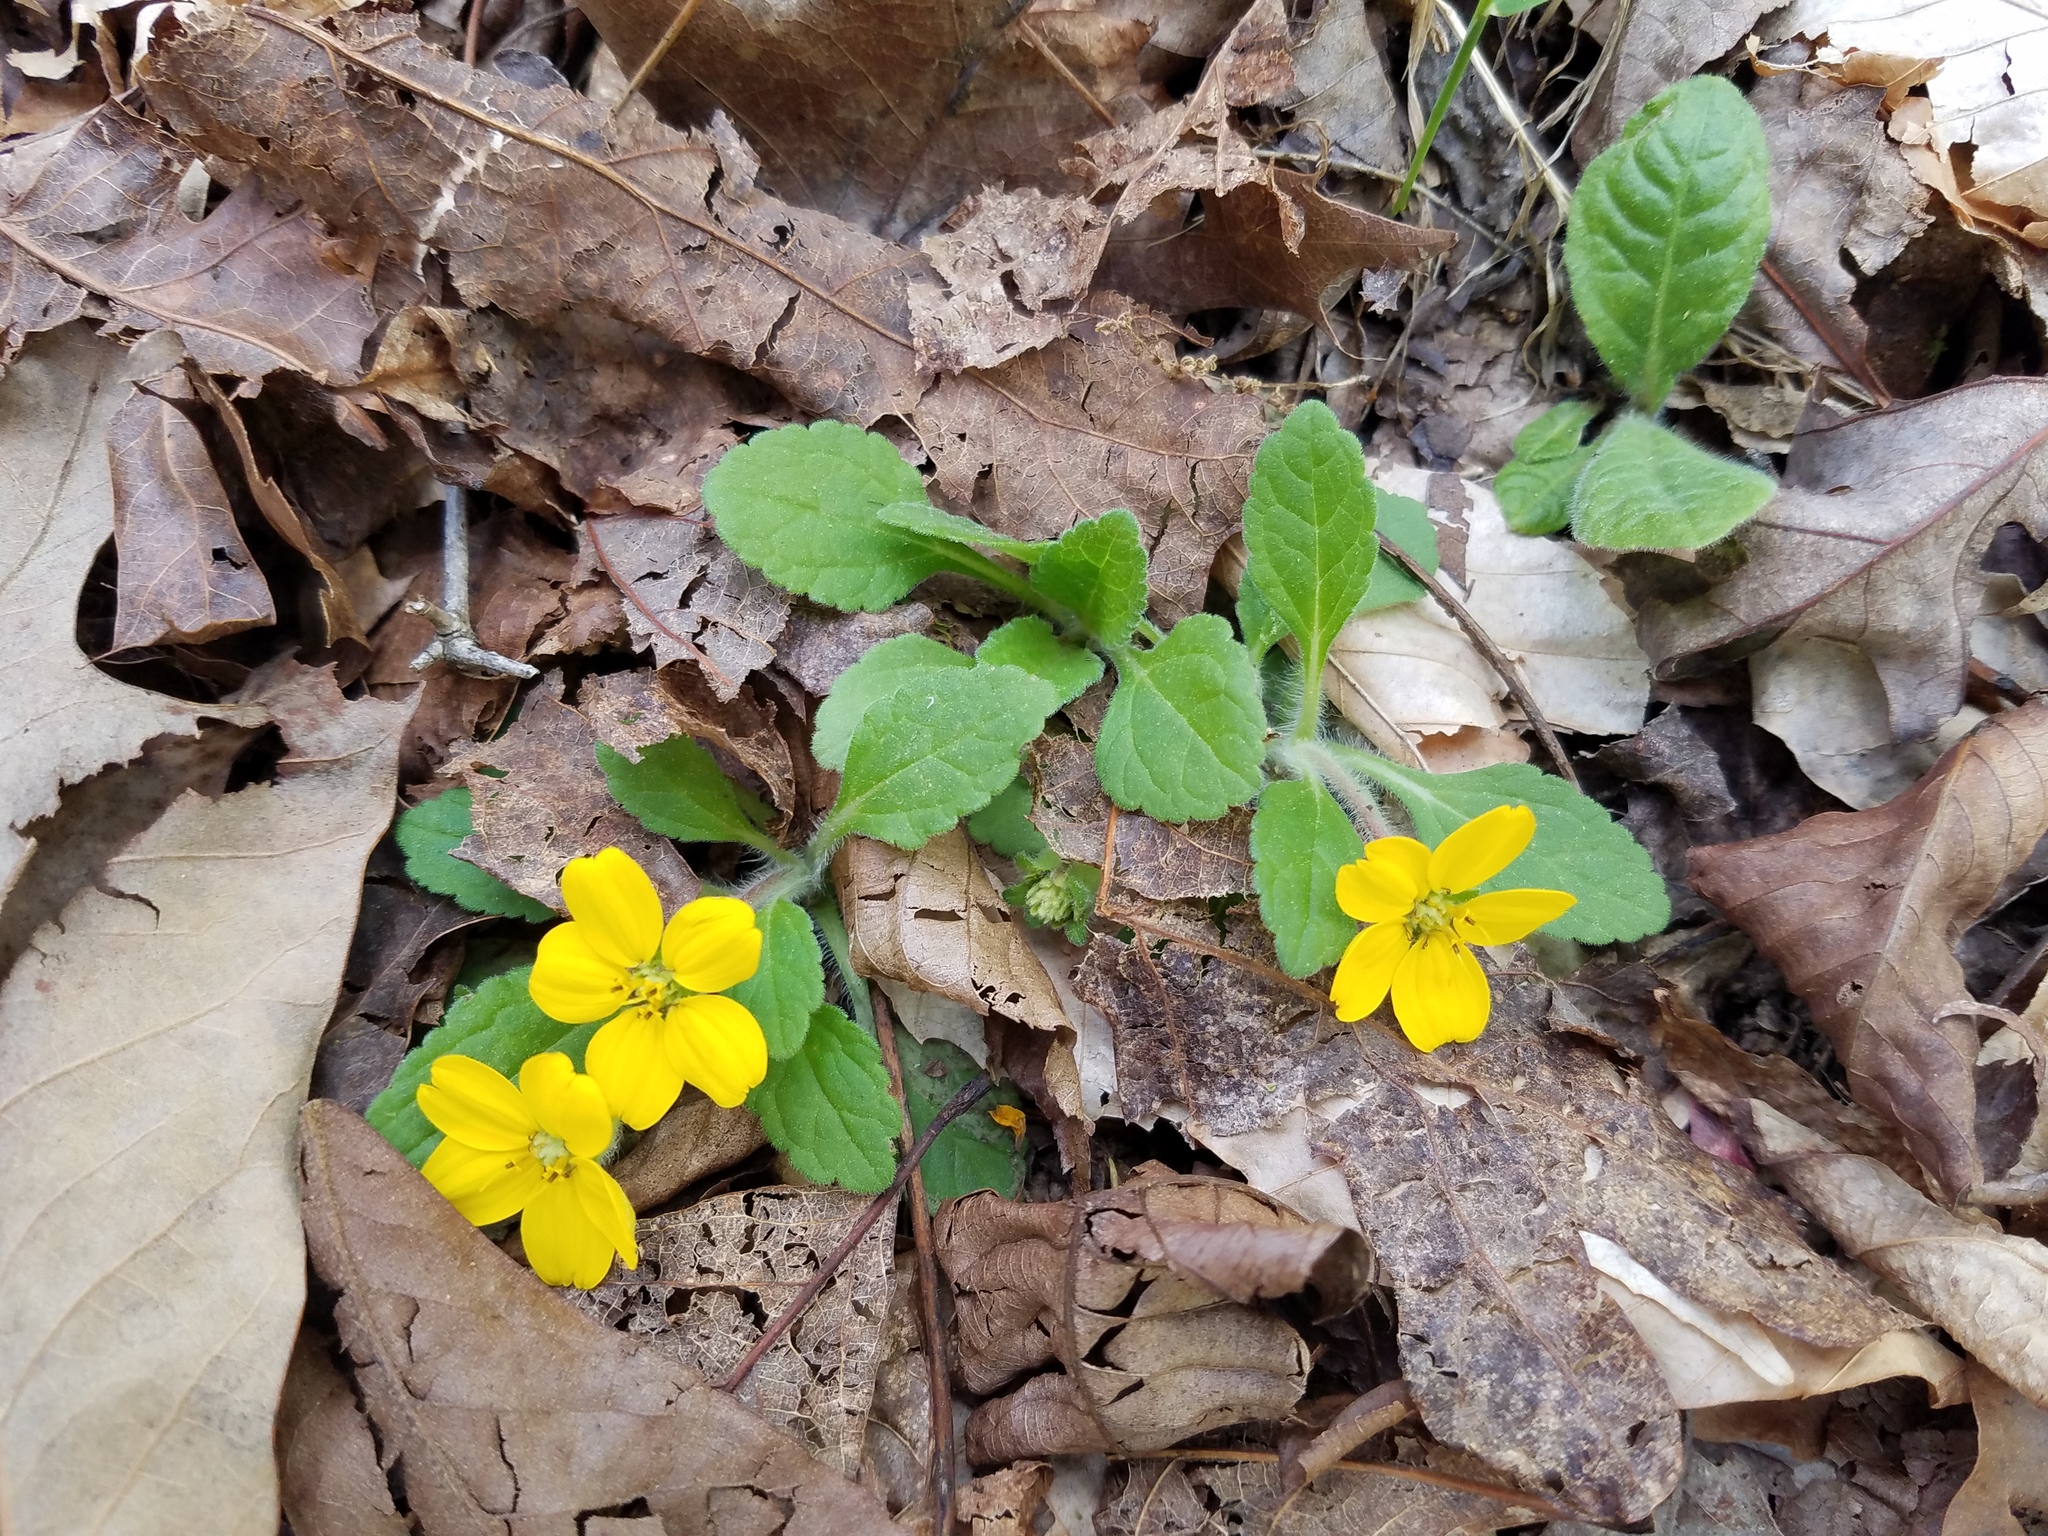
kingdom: Plantae
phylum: Tracheophyta
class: Magnoliopsida
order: Asterales
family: Asteraceae
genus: Chrysogonum
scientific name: Chrysogonum virginianum
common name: Golden-knee
